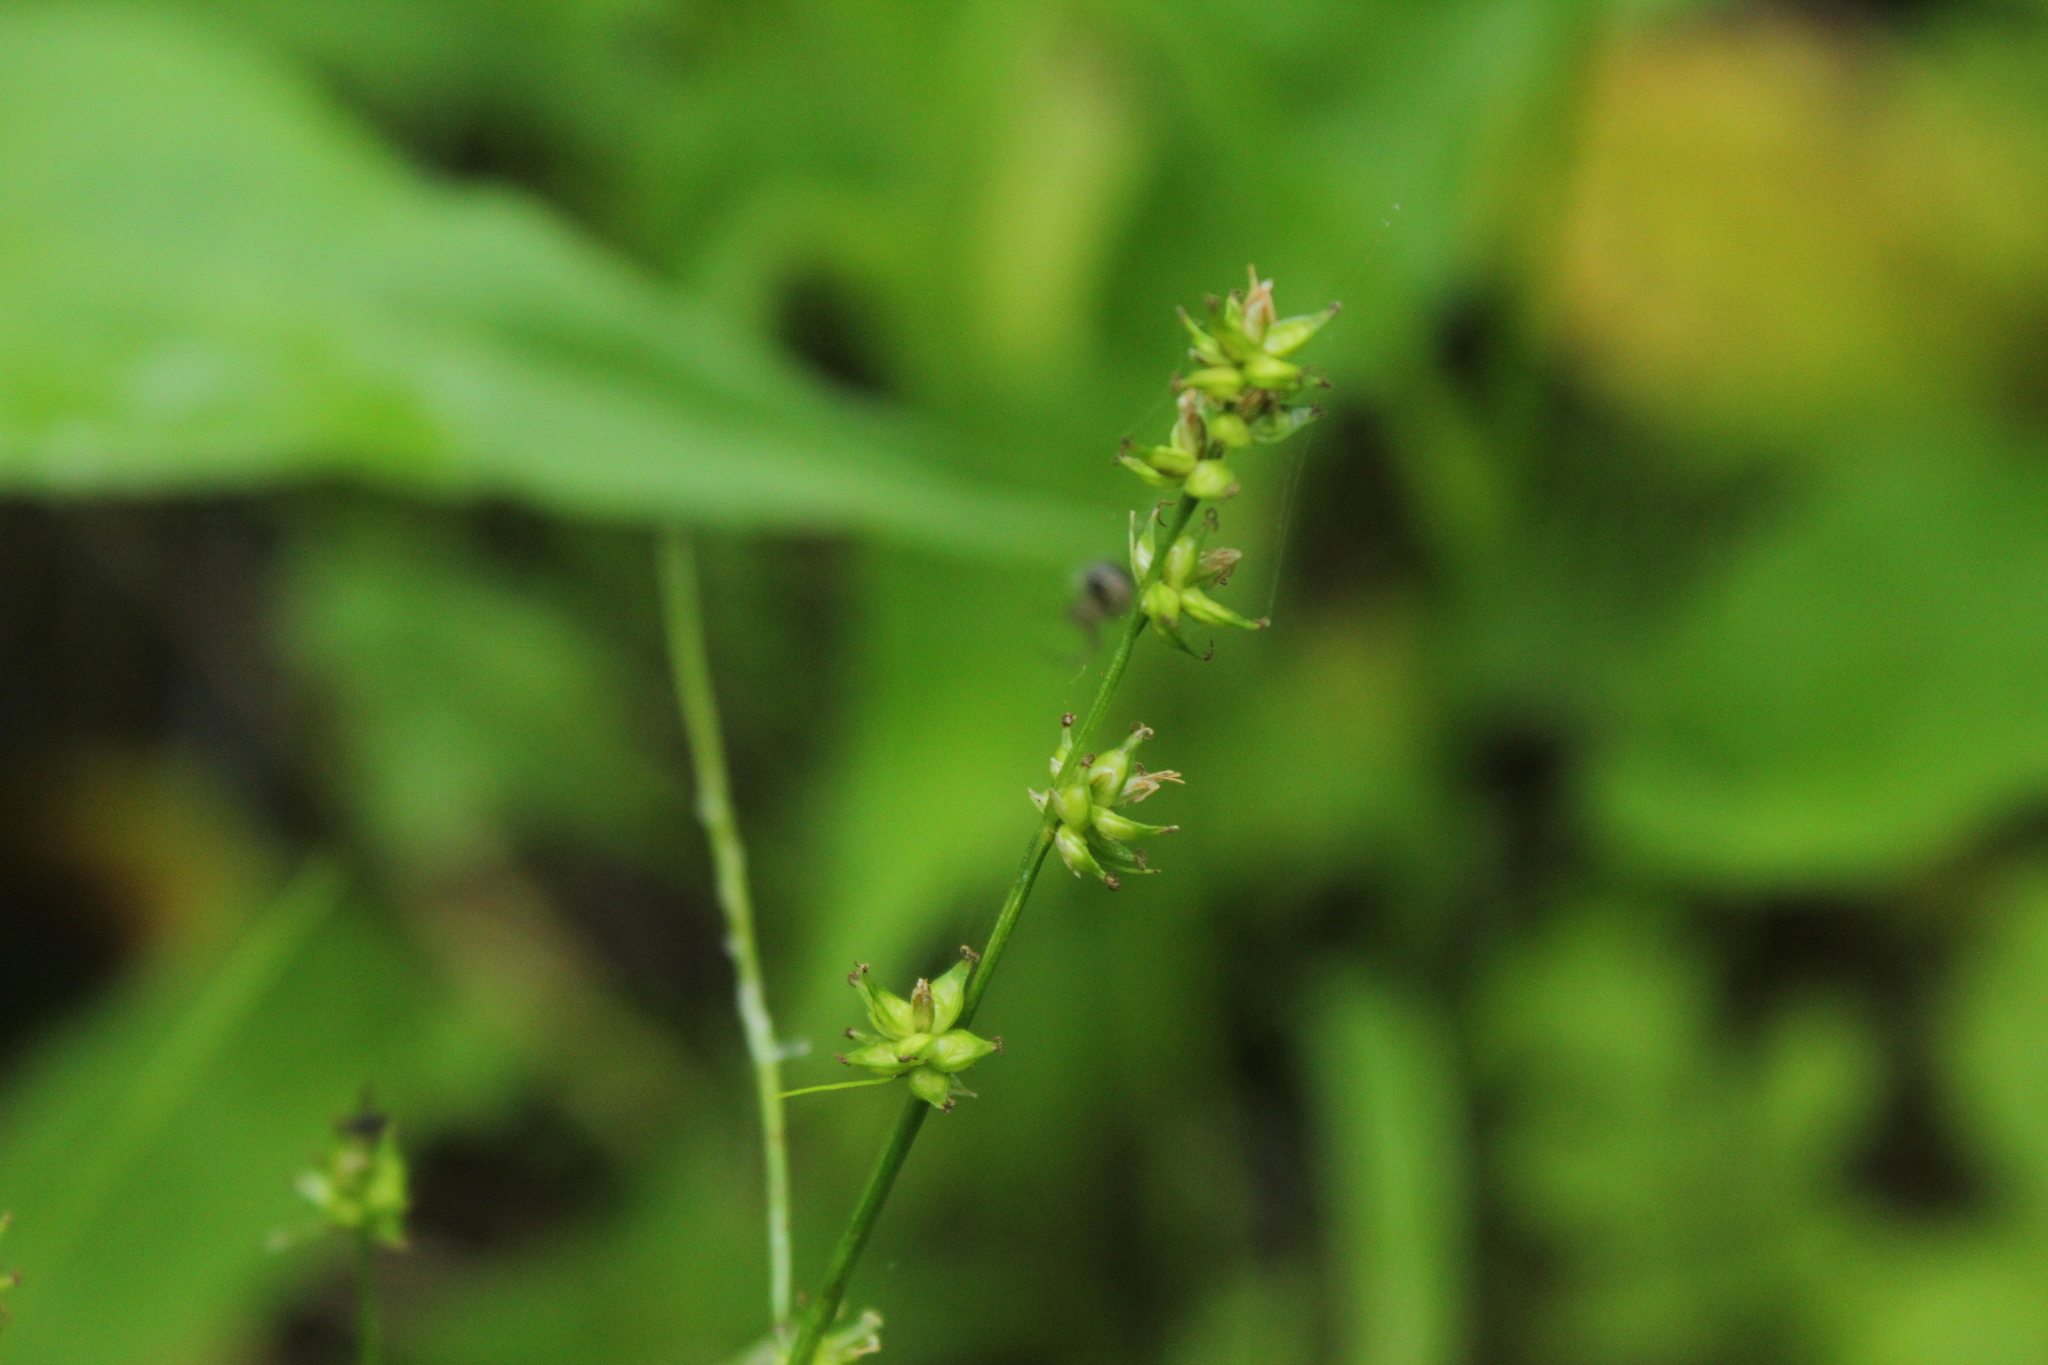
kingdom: Plantae
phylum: Tracheophyta
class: Liliopsida
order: Poales
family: Cyperaceae
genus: Carex
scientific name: Carex rosea
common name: Curly-styled wood sedge
